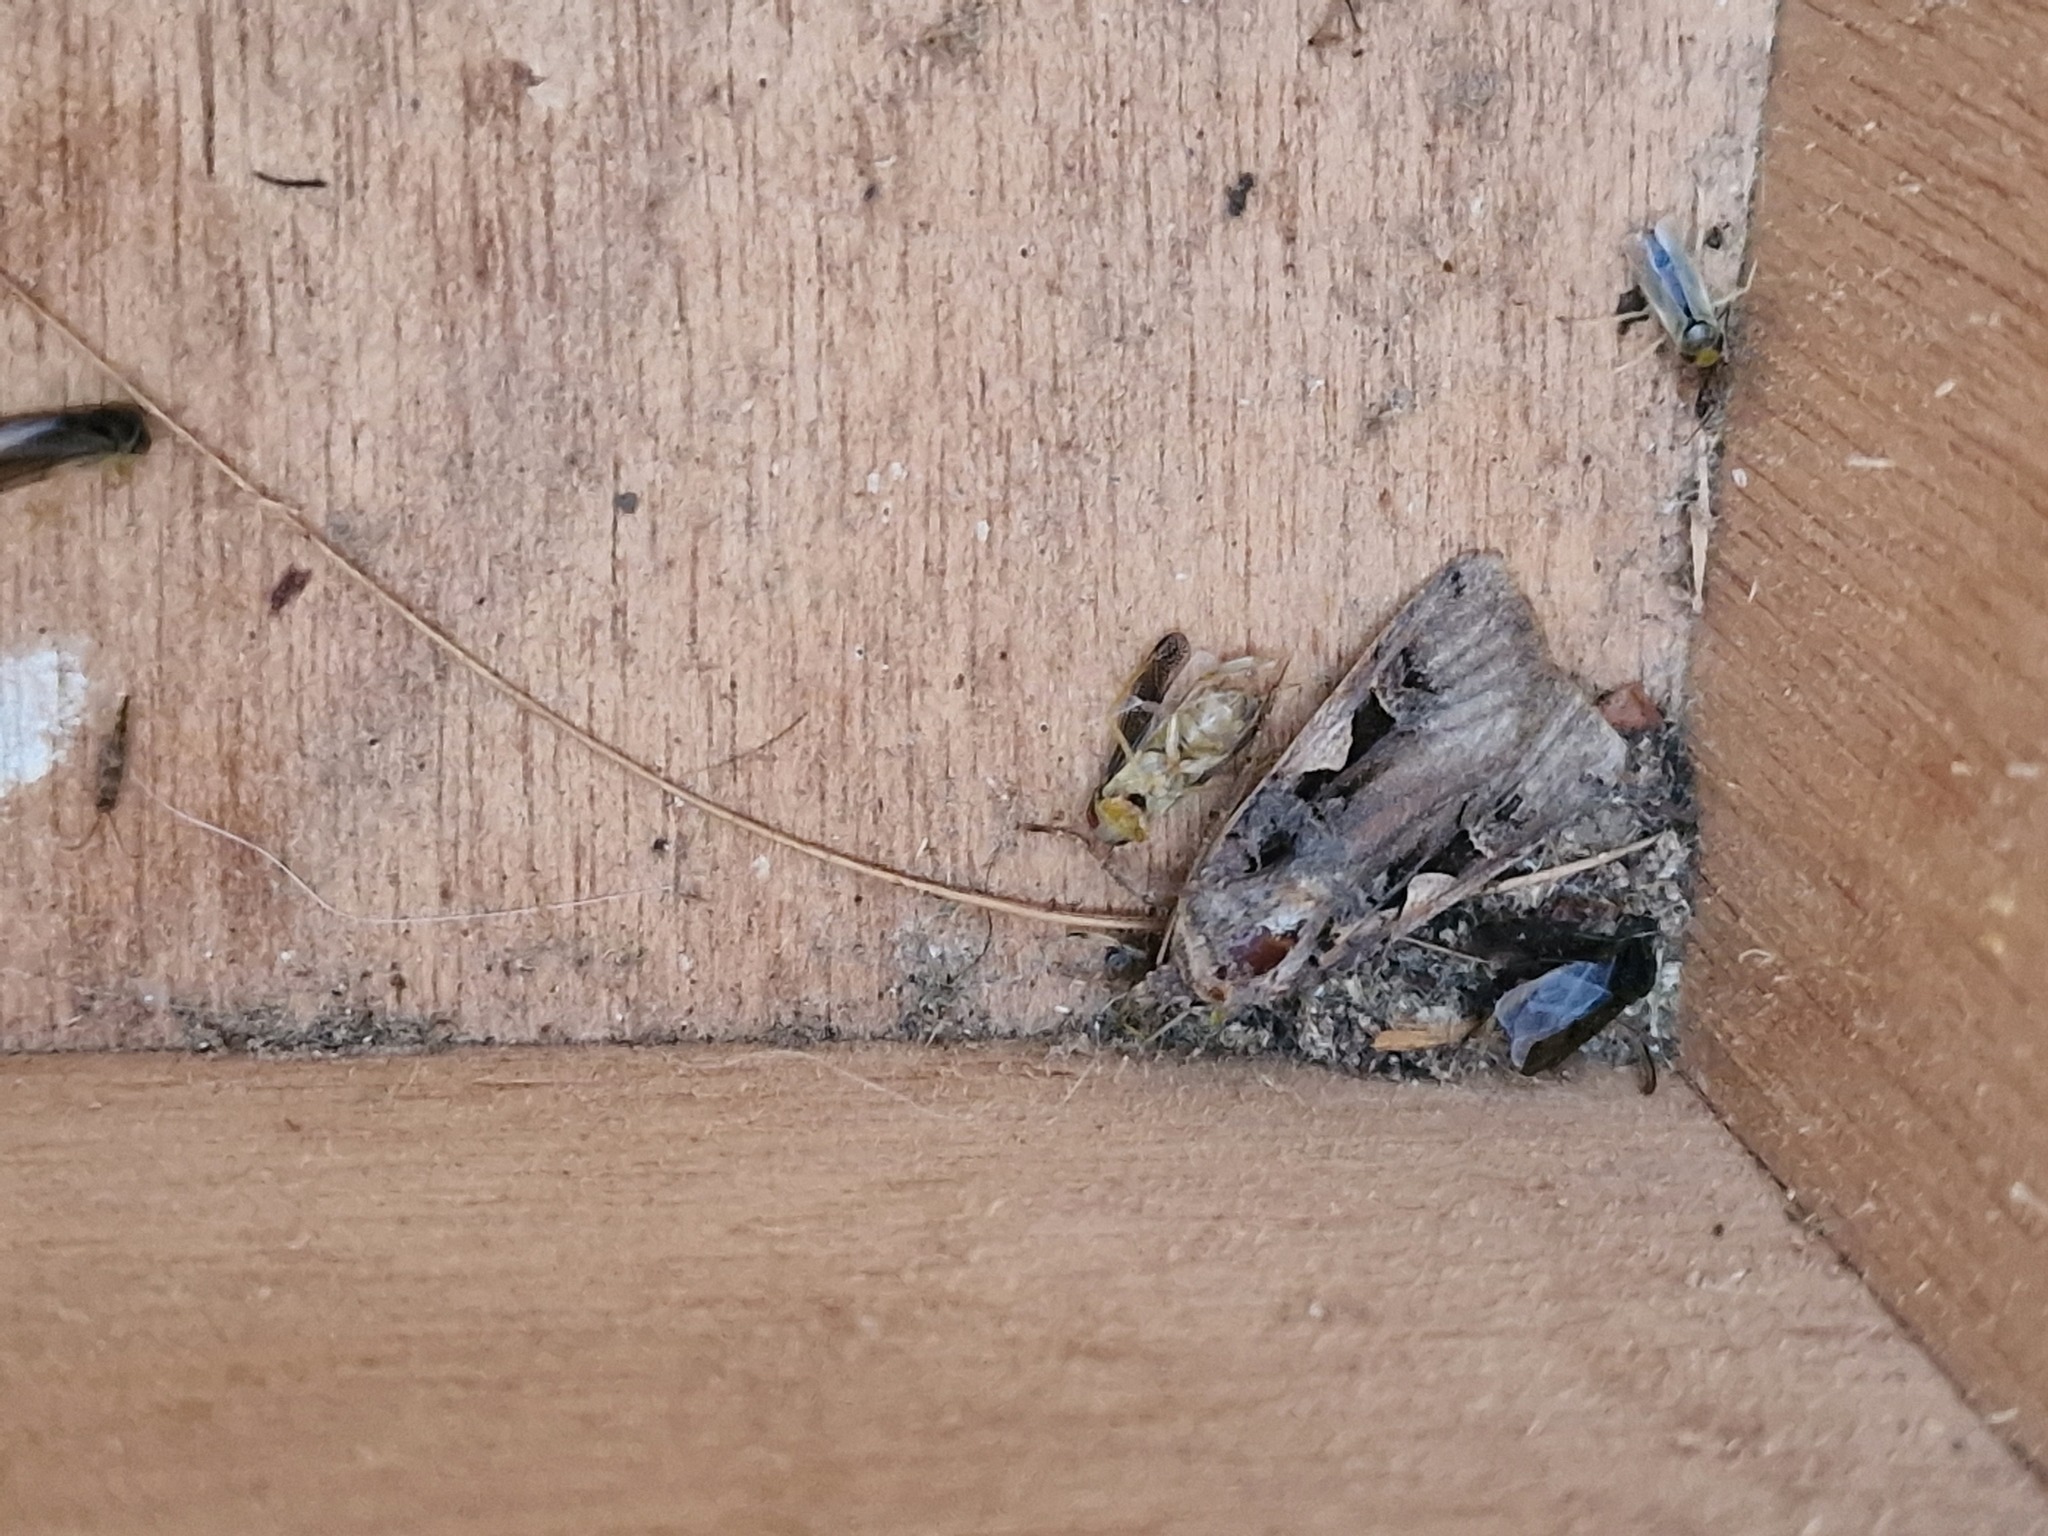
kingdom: Animalia
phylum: Arthropoda
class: Insecta
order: Lepidoptera
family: Noctuidae
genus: Xestia
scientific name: Xestia c-nigrum
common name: Setaceous hebrew character
